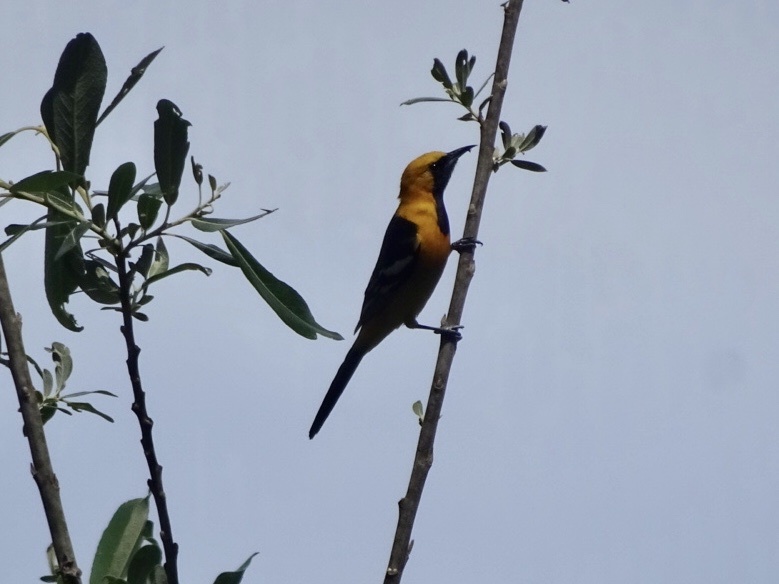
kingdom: Animalia
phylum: Chordata
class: Aves
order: Passeriformes
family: Icteridae
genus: Icterus
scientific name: Icterus cucullatus
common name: Hooded oriole
